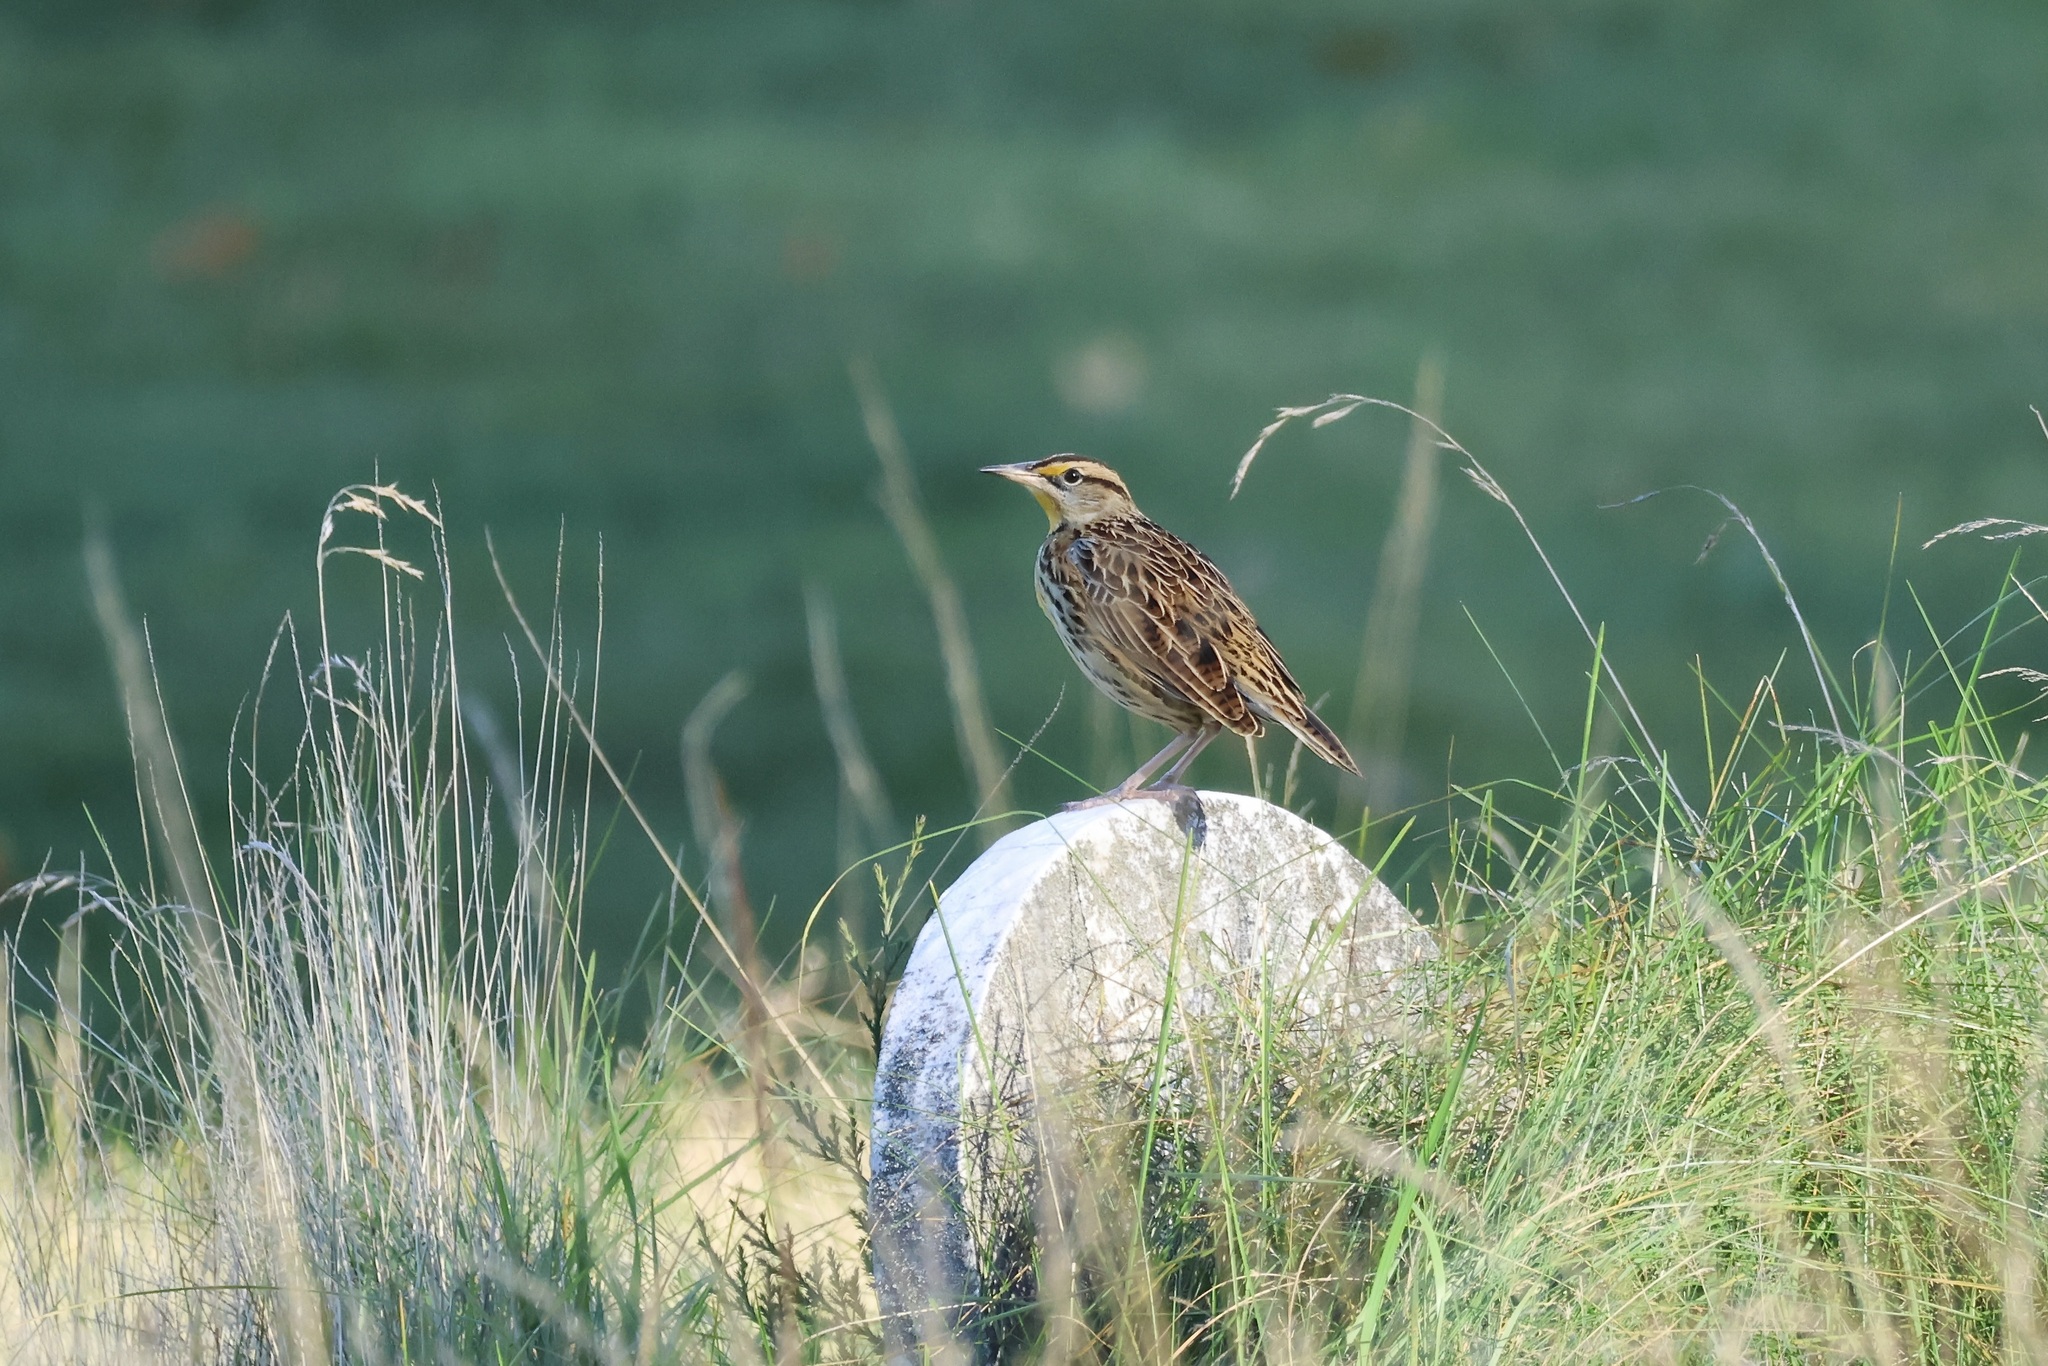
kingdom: Animalia
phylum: Chordata
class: Aves
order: Passeriformes
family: Icteridae
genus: Sturnella
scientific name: Sturnella magna
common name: Eastern meadowlark
